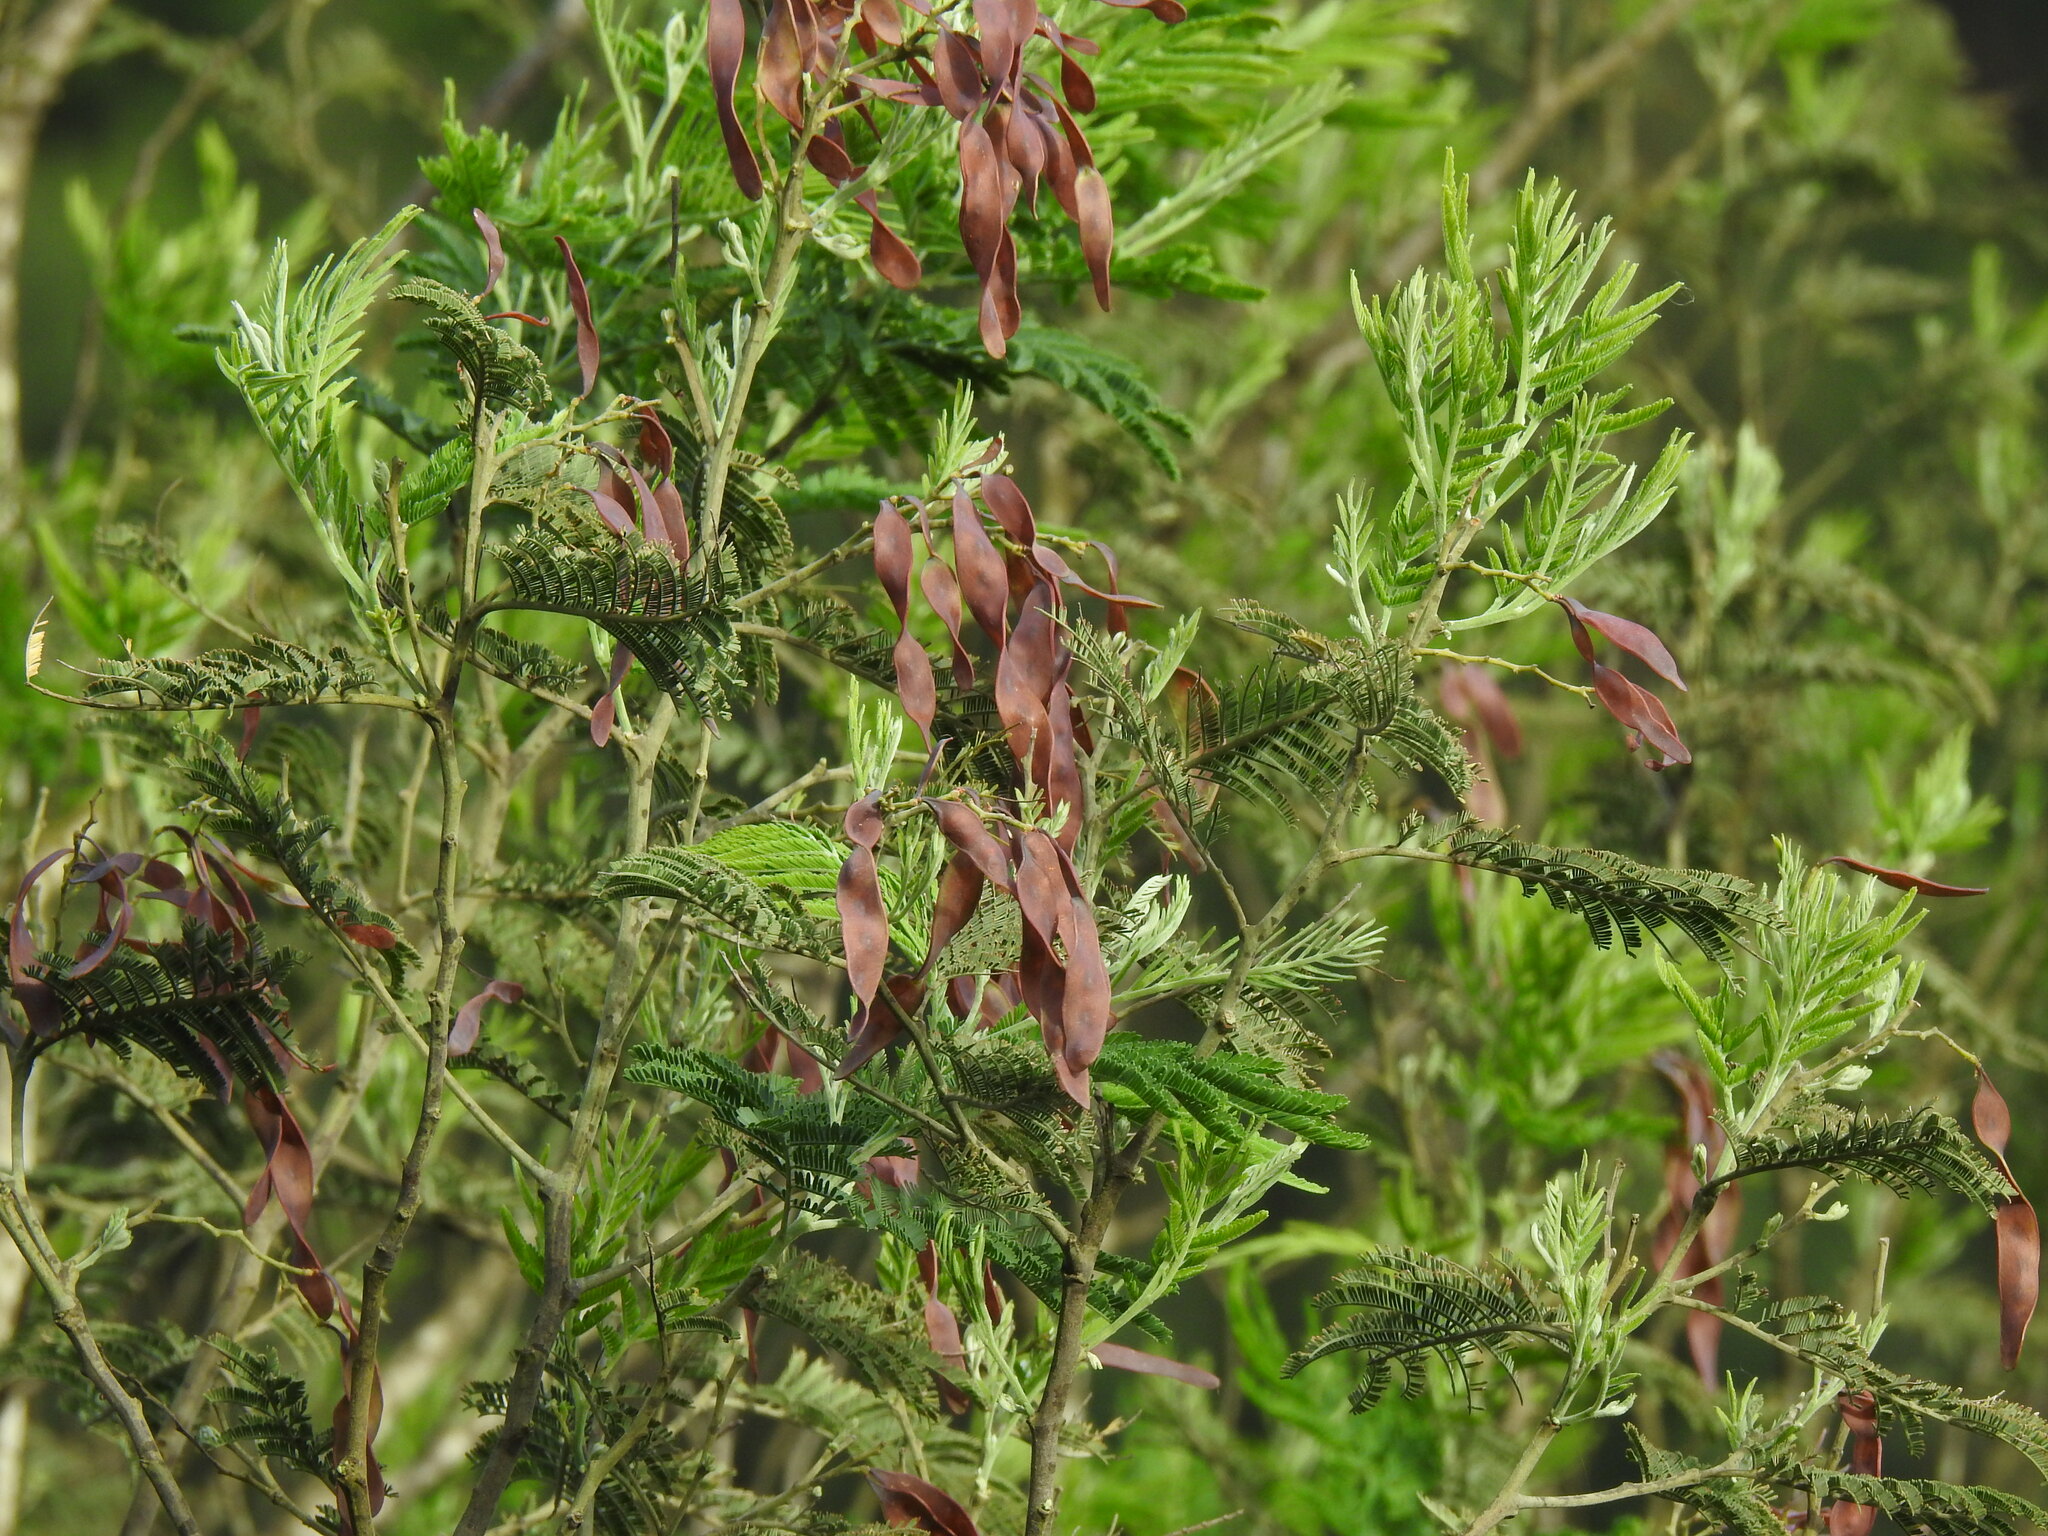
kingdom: Plantae
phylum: Tracheophyta
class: Magnoliopsida
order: Fabales
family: Fabaceae
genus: Acacia
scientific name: Acacia dealbata
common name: Silver wattle
